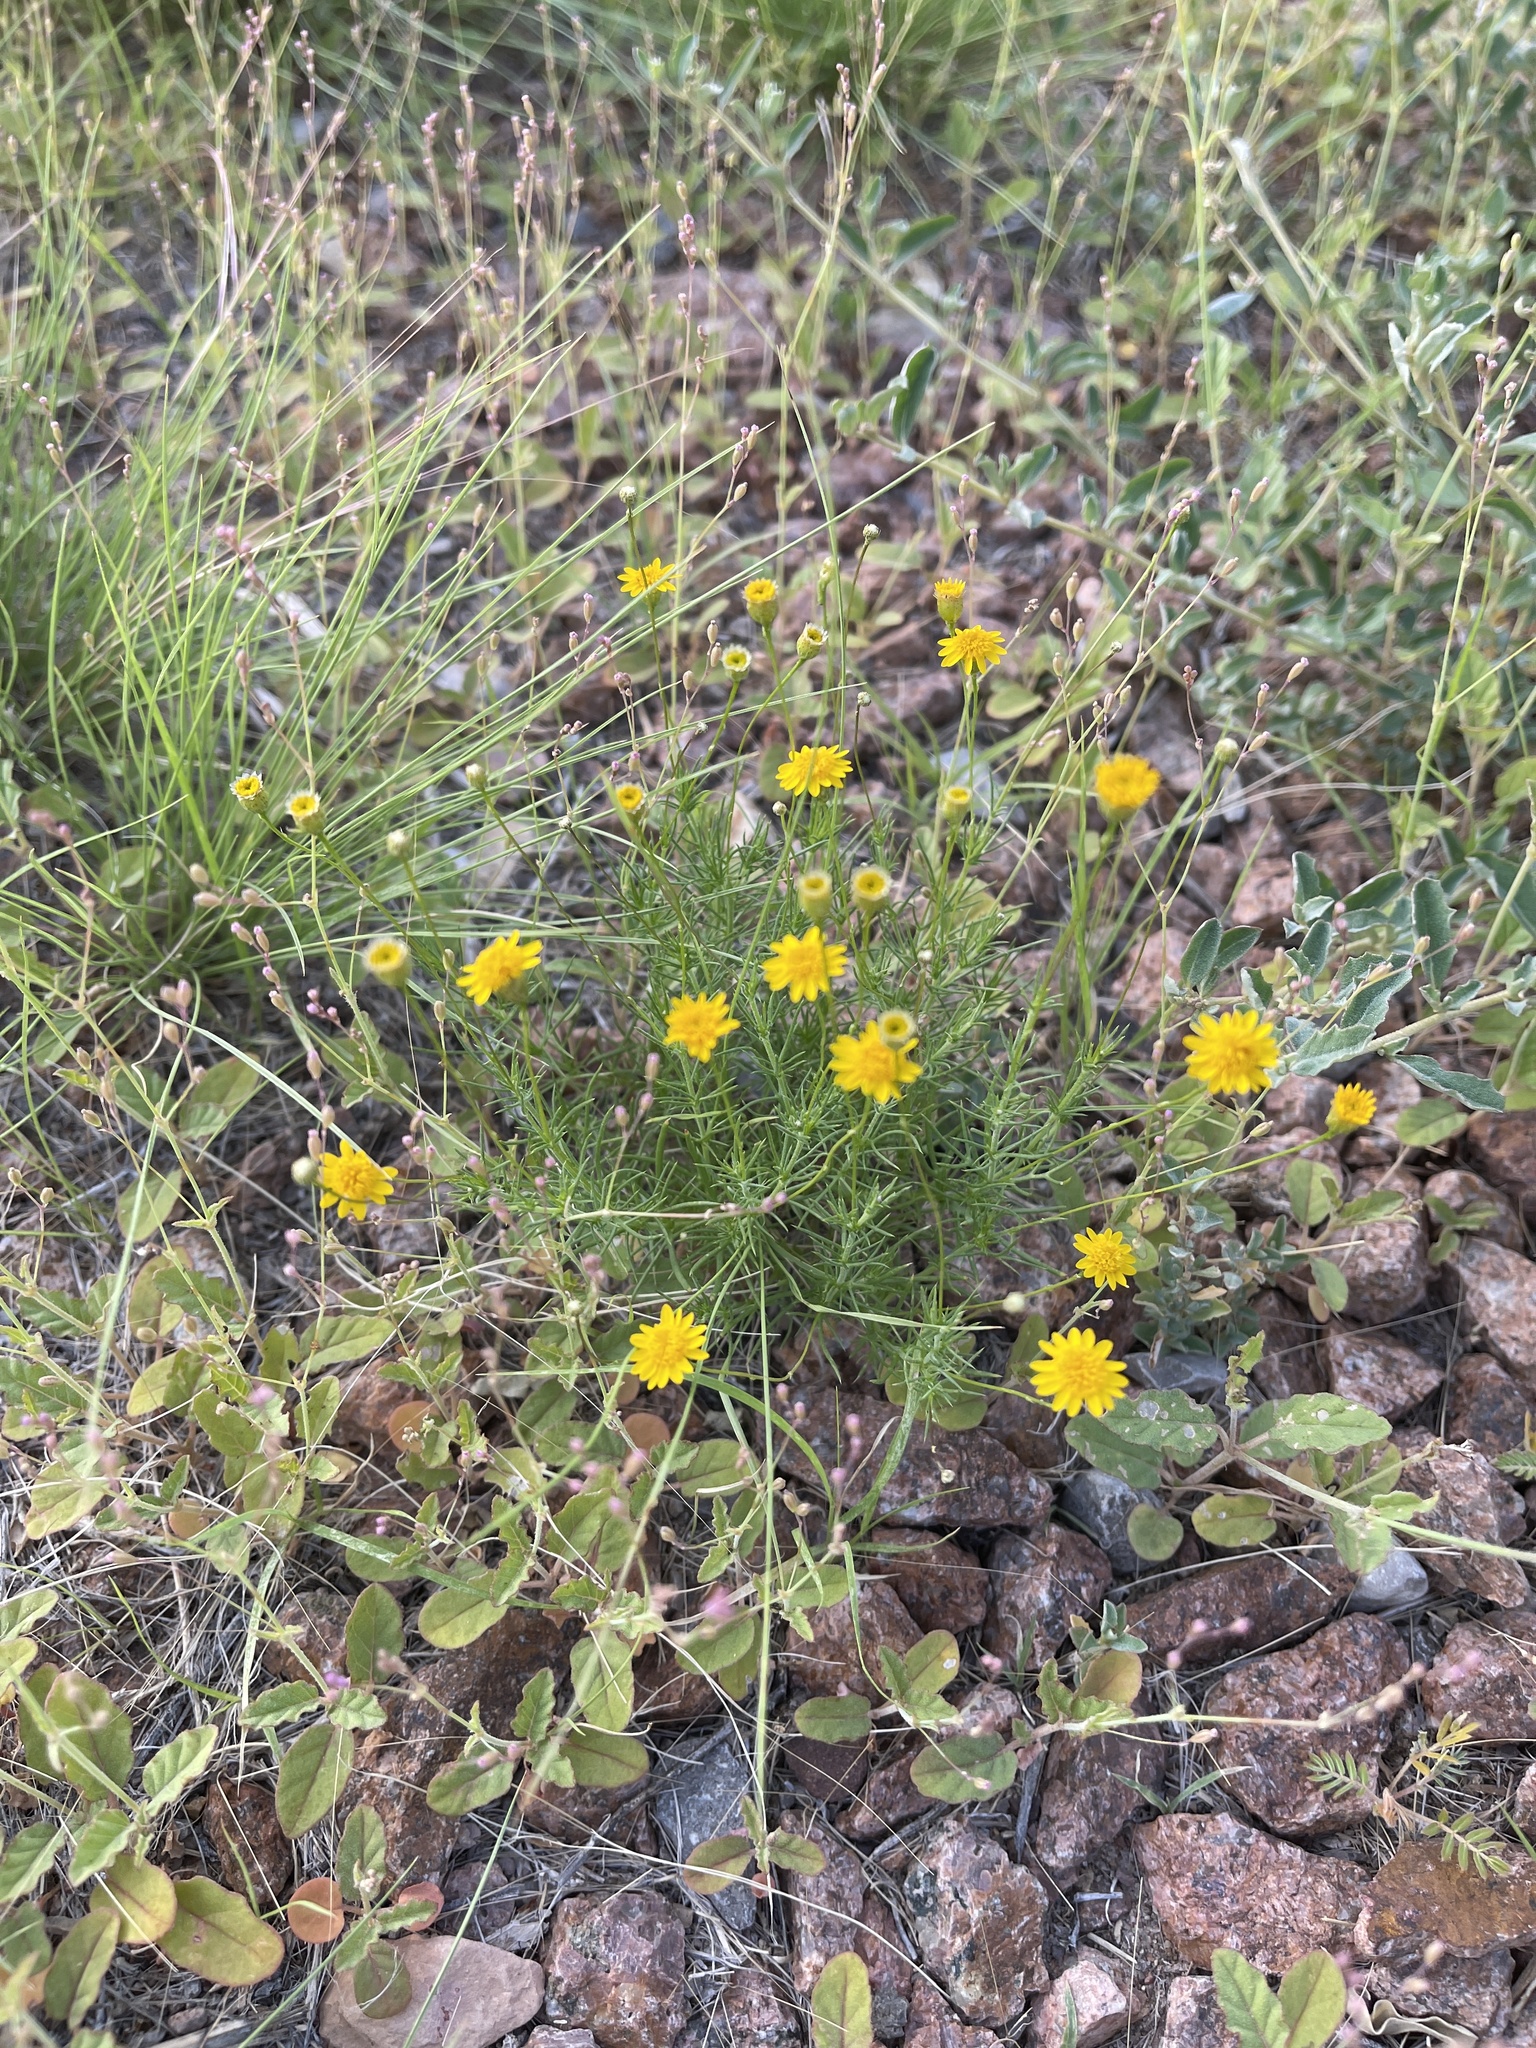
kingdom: Plantae
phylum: Tracheophyta
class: Magnoliopsida
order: Asterales
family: Asteraceae
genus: Thymophylla
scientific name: Thymophylla pentachaeta
